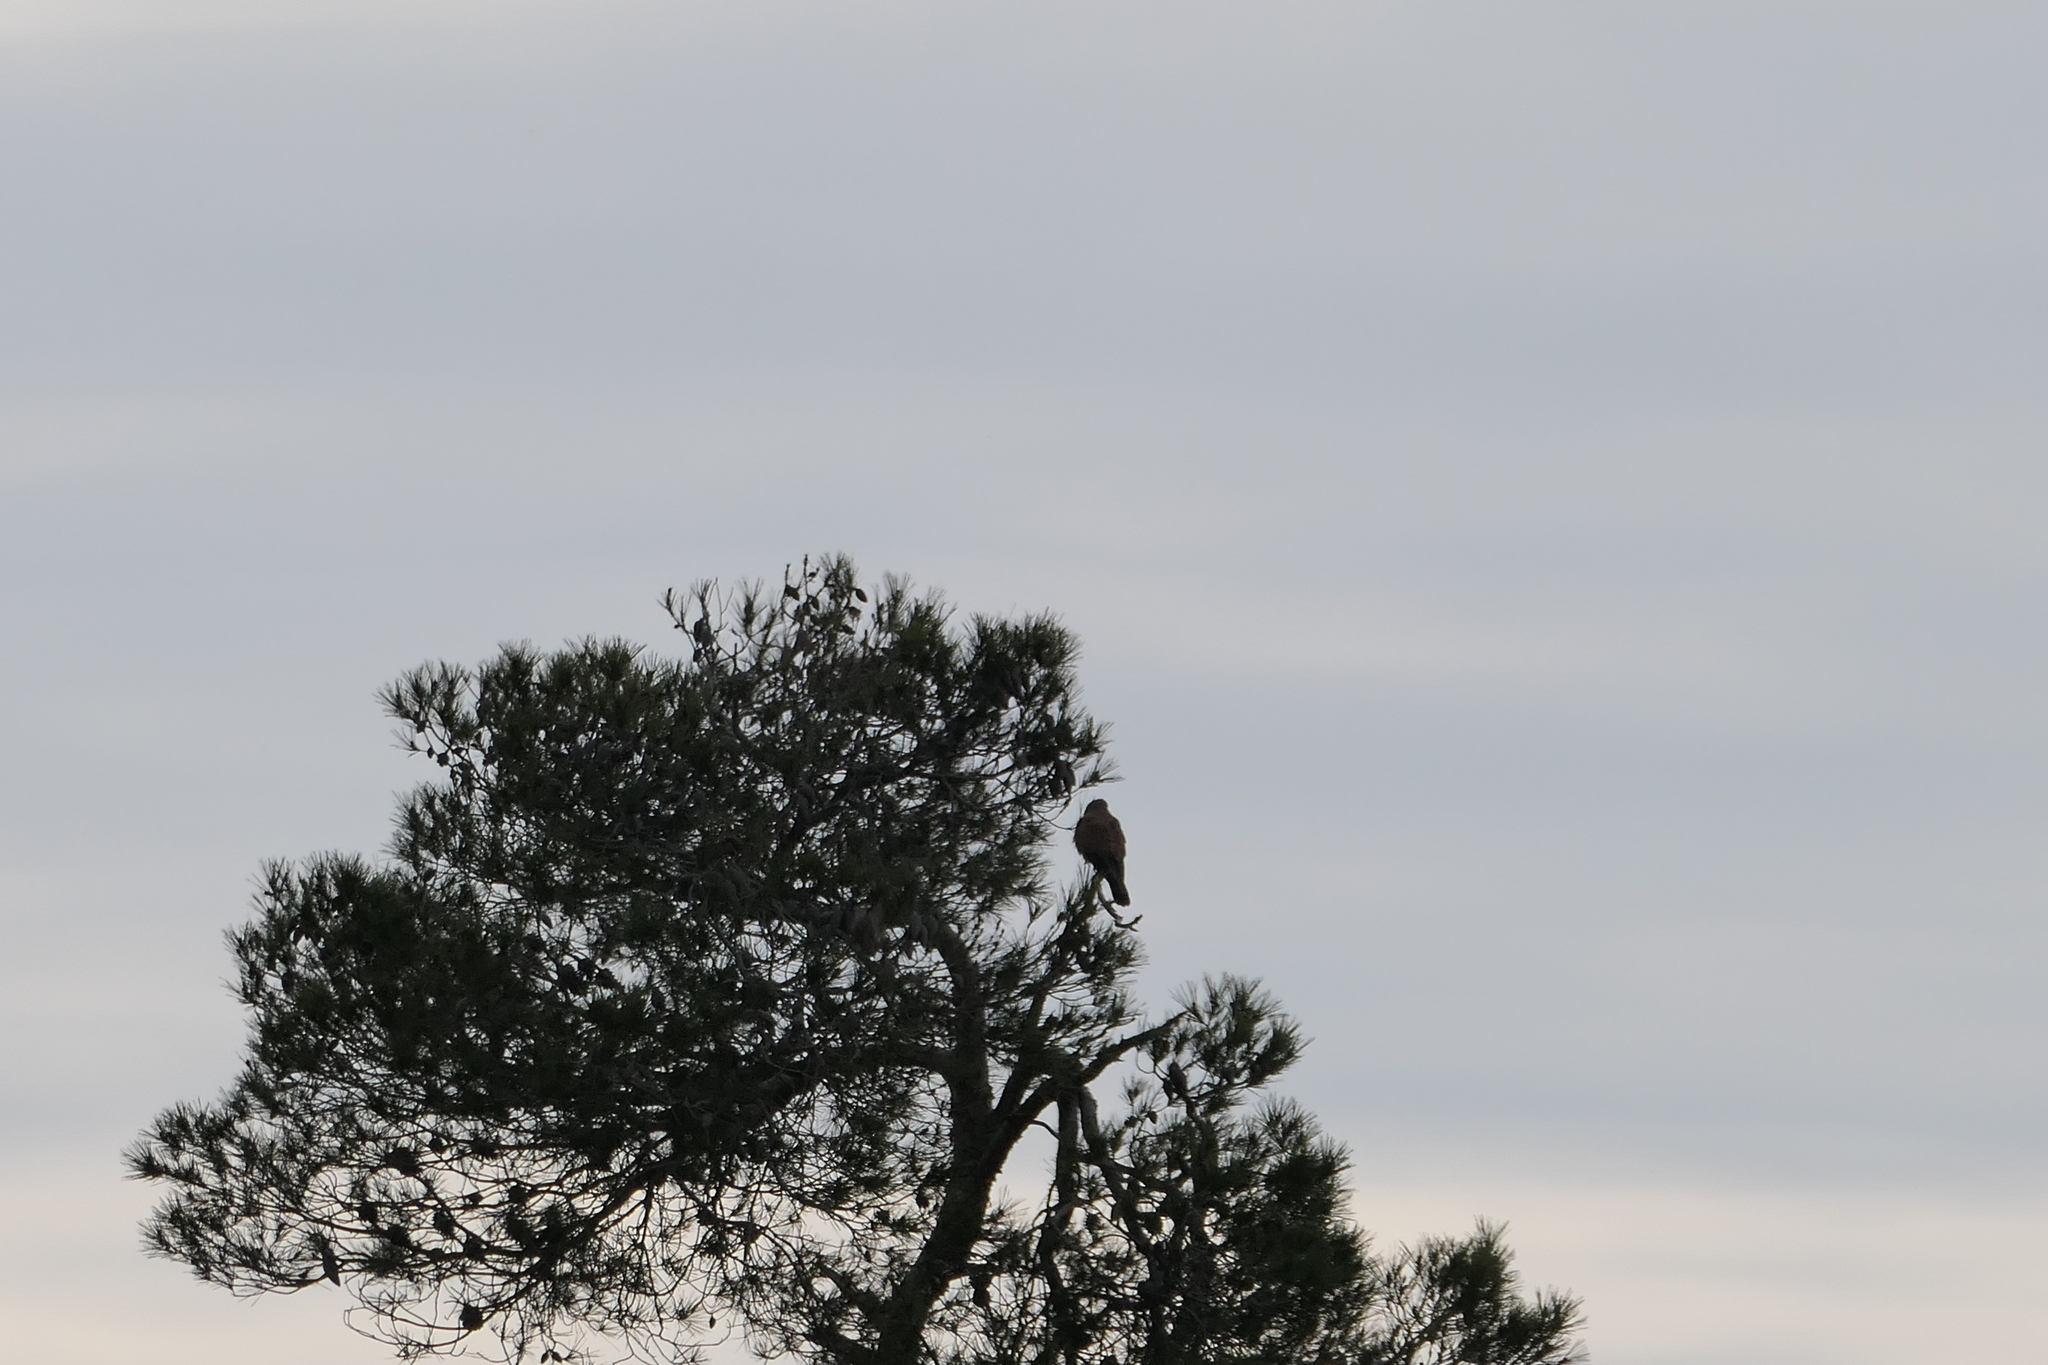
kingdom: Animalia
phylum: Chordata
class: Aves
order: Falconiformes
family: Falconidae
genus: Falco
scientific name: Falco tinnunculus
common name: Common kestrel
